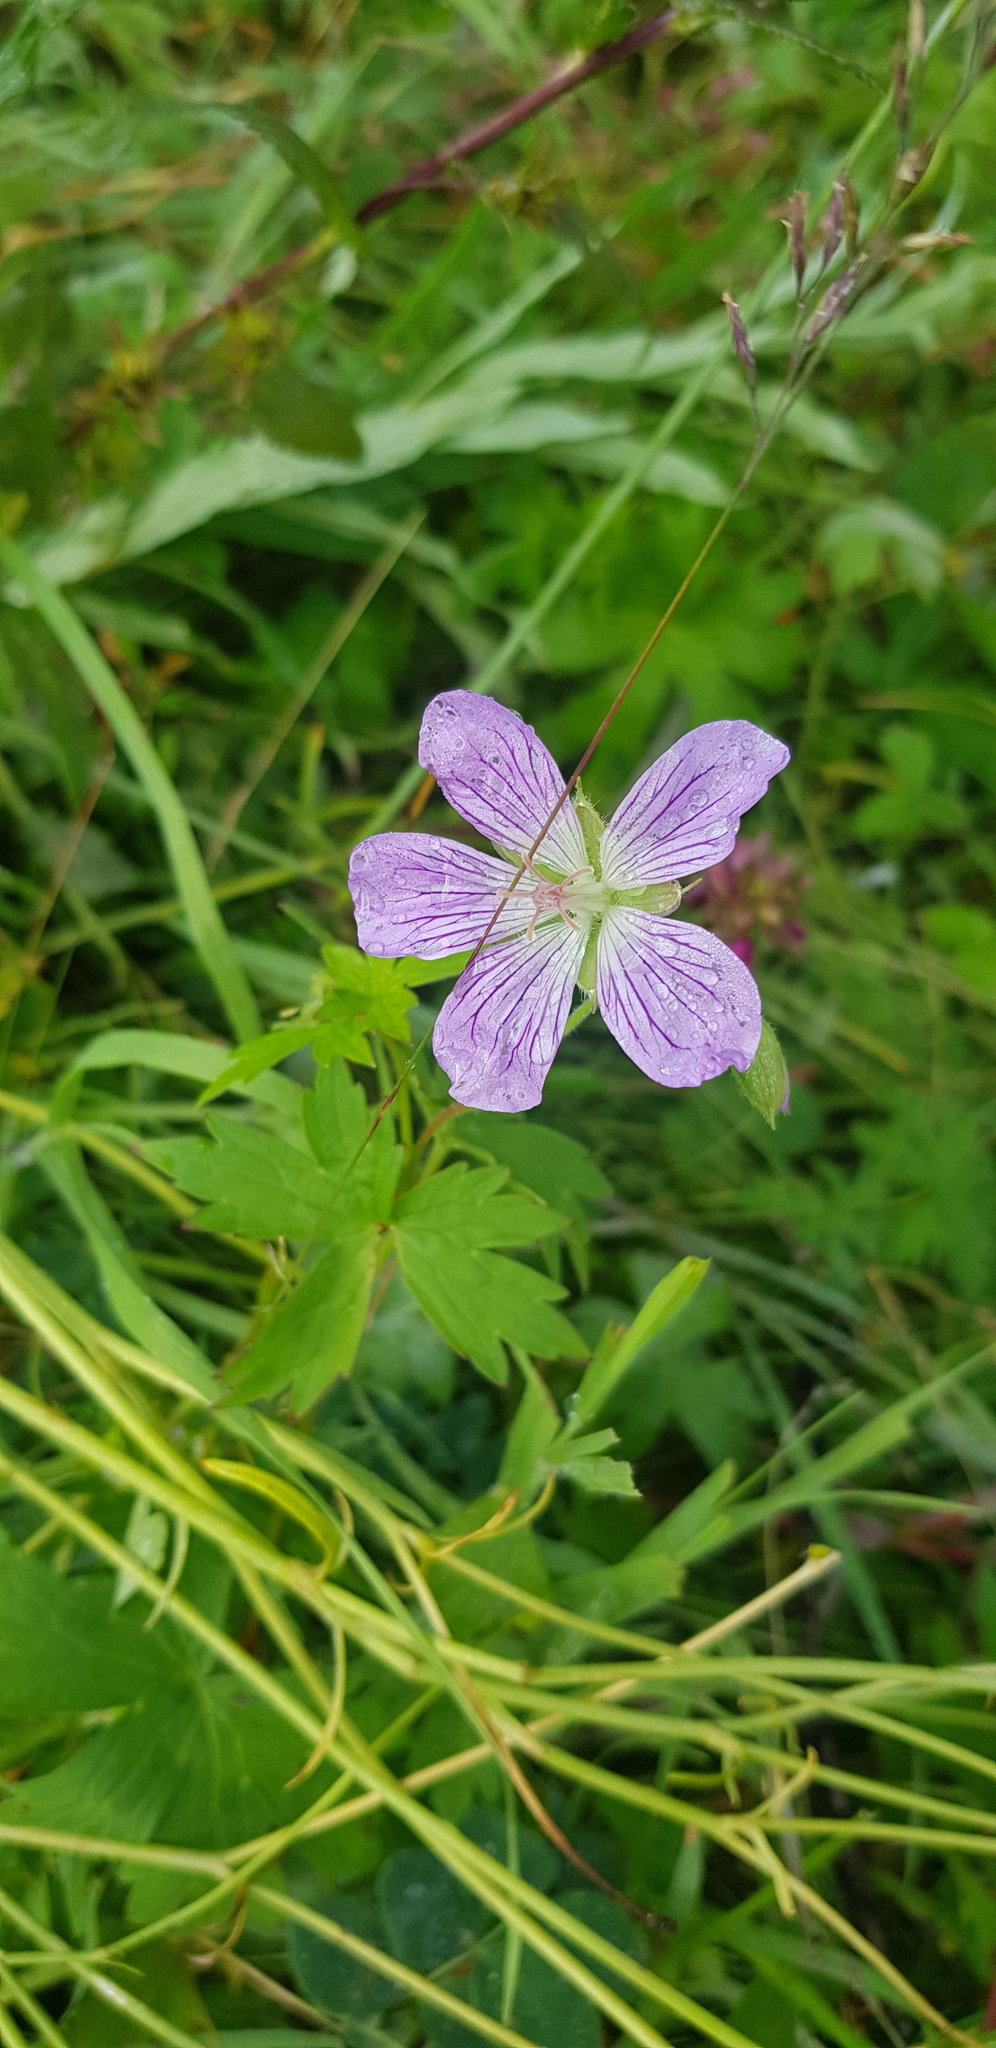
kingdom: Plantae
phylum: Tracheophyta
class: Magnoliopsida
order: Geraniales
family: Geraniaceae
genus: Geranium
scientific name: Geranium wlassovianum
